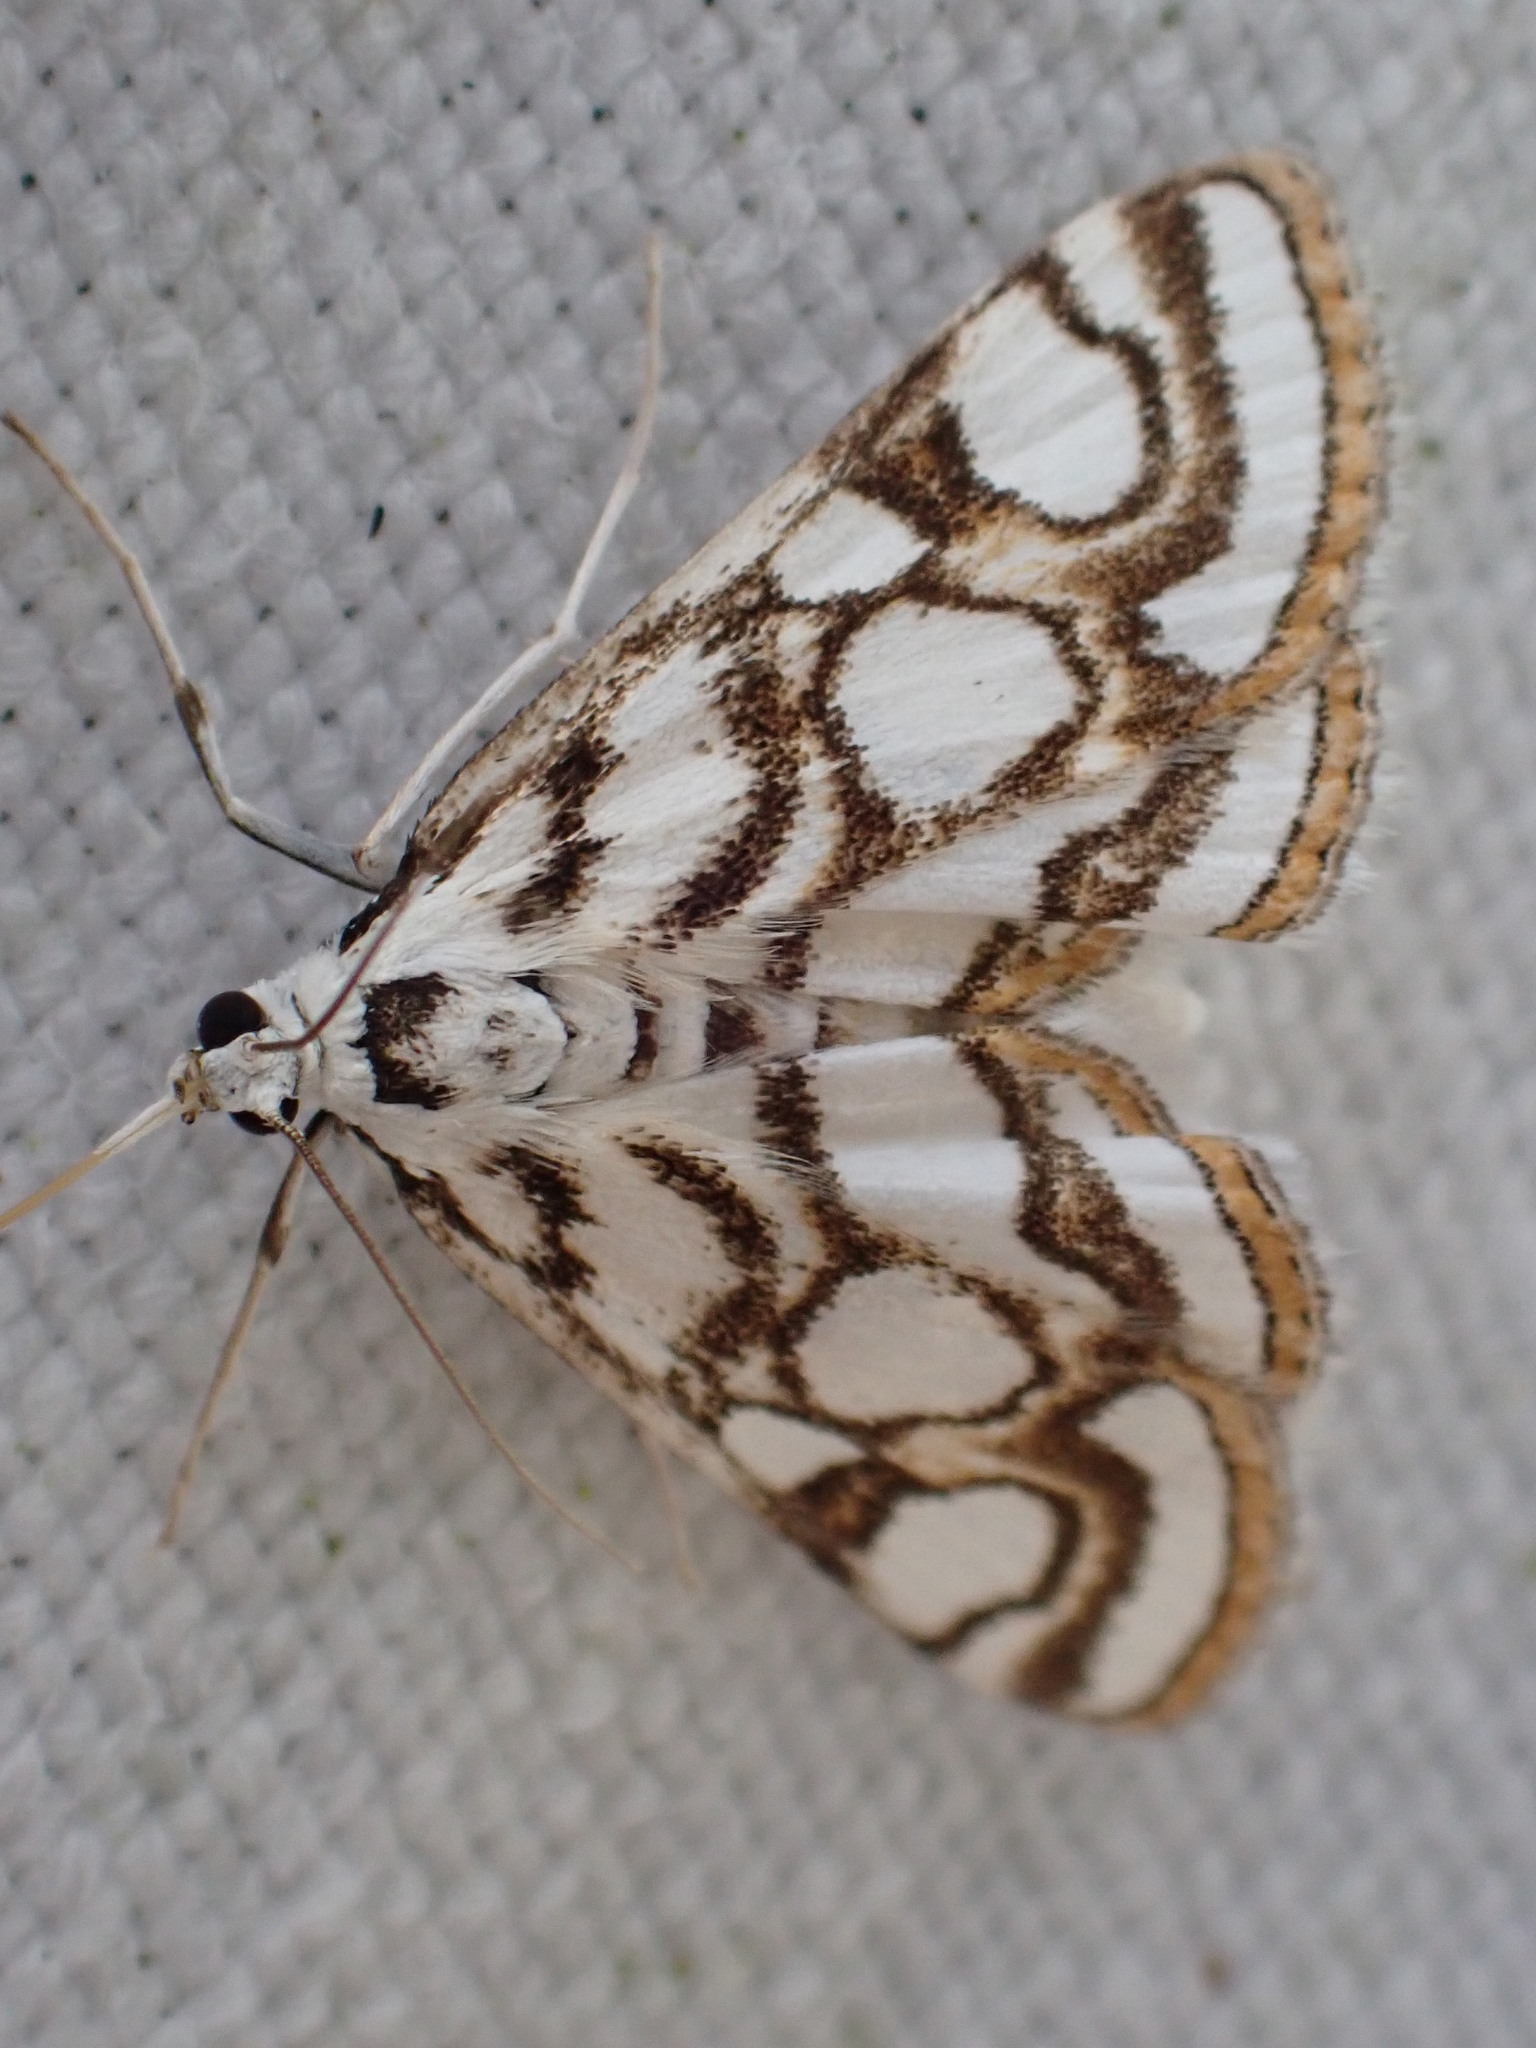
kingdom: Animalia
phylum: Arthropoda
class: Insecta
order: Lepidoptera
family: Crambidae
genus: Nymphula
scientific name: Nymphula nitidulata
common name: Beautiful china mark
